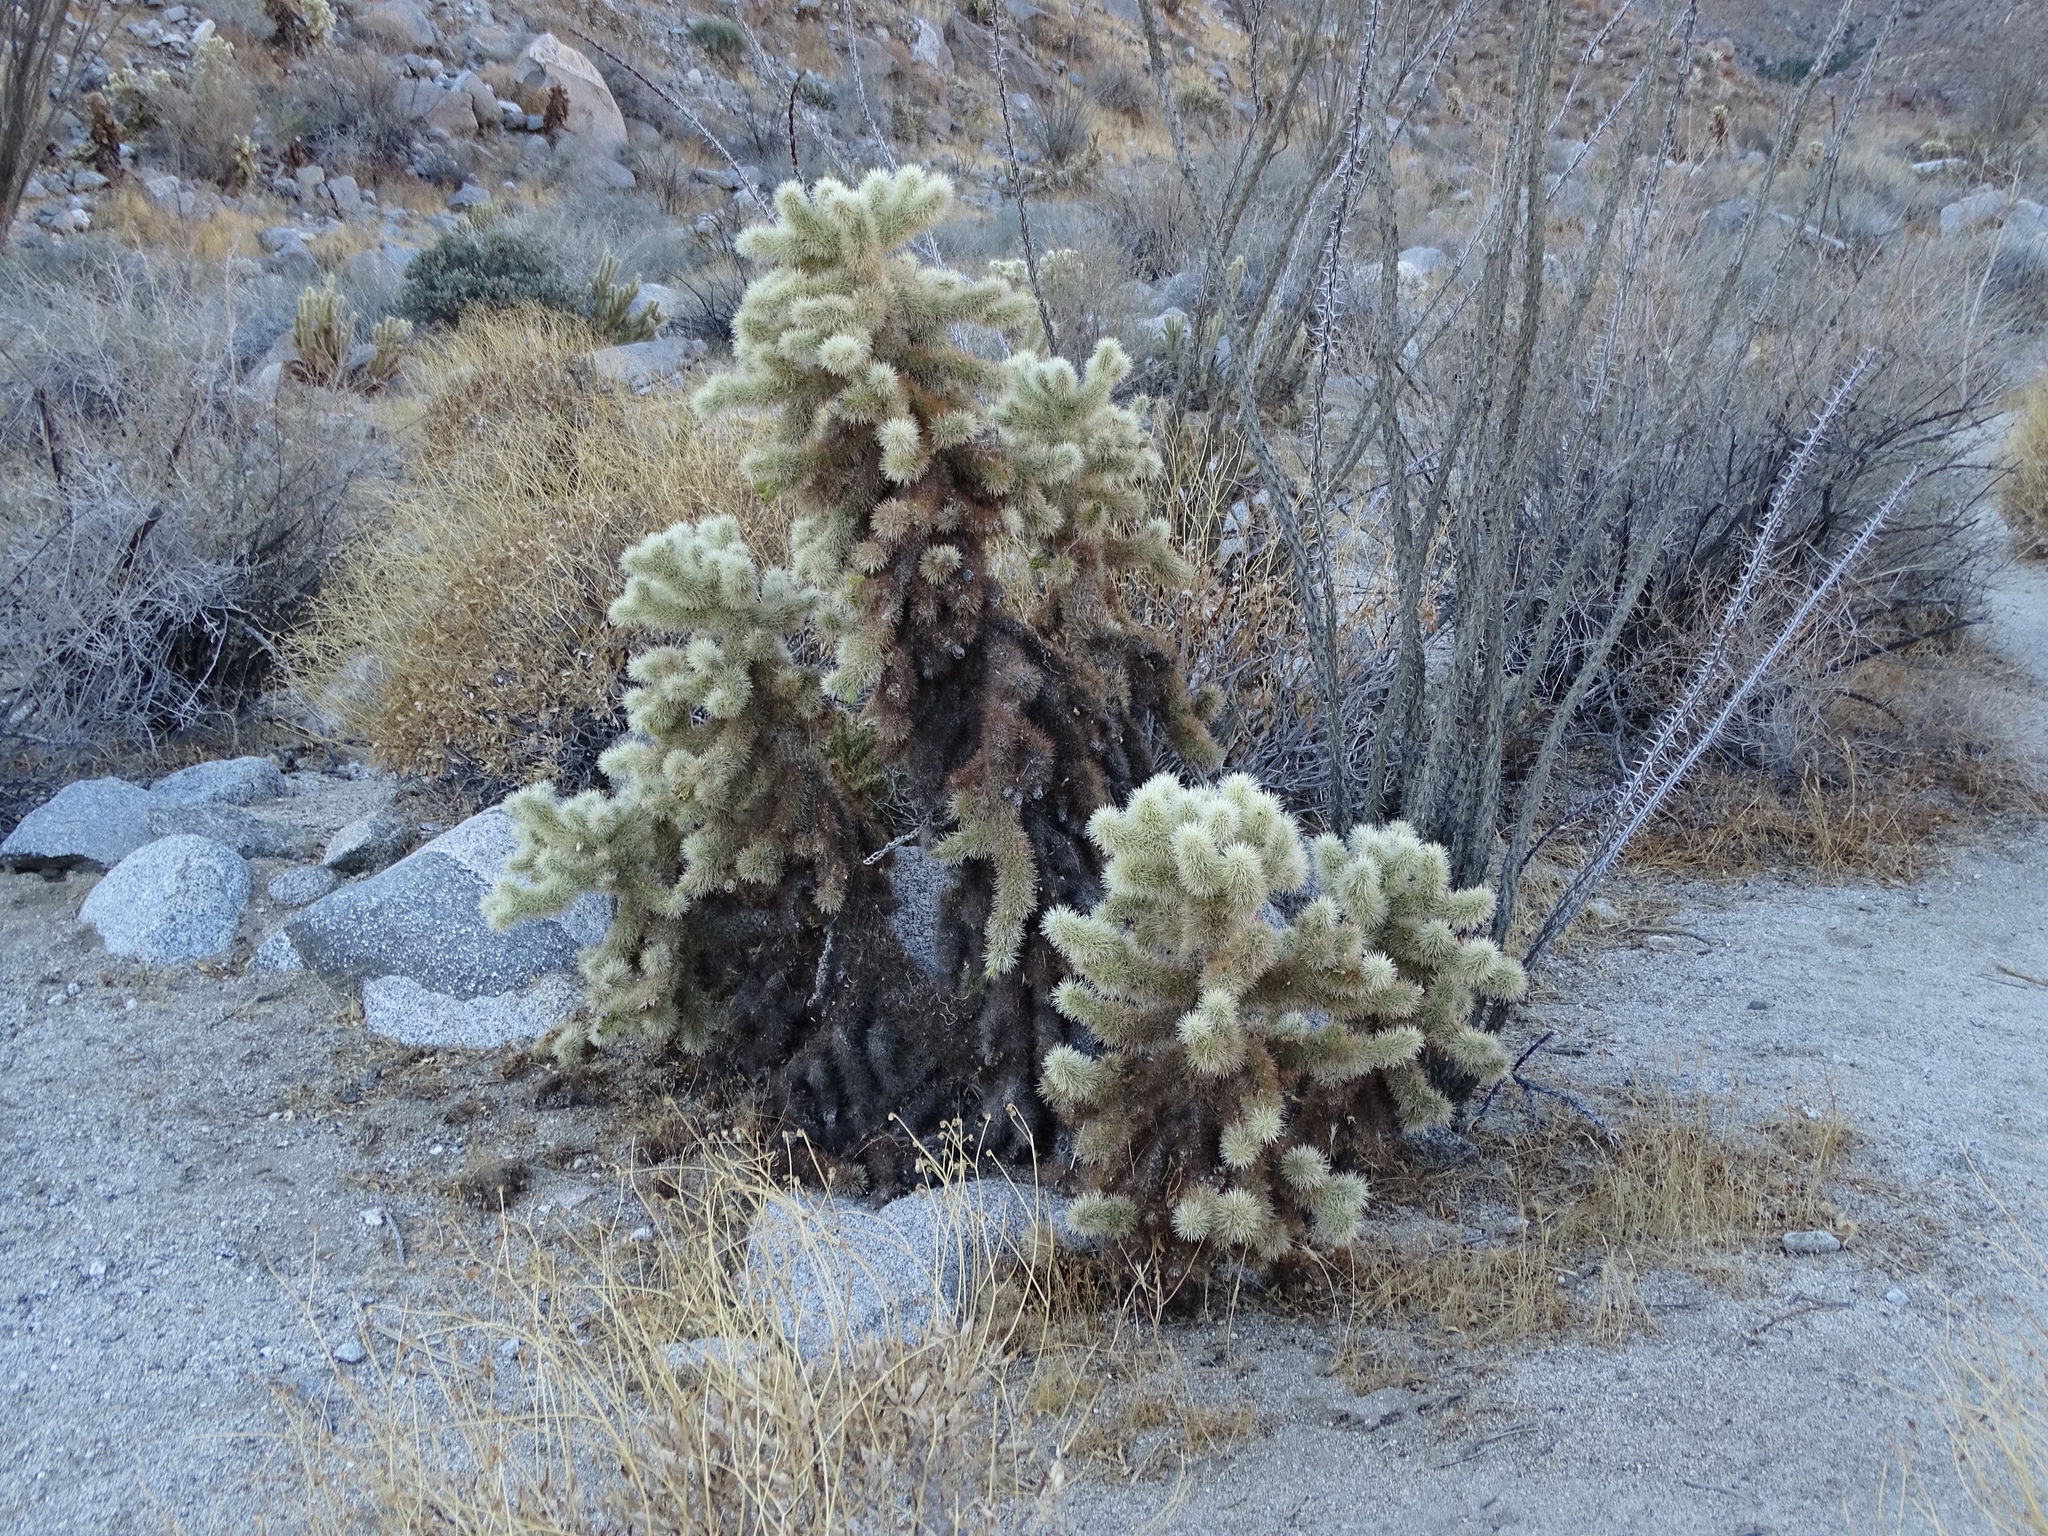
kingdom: Plantae
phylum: Tracheophyta
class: Magnoliopsida
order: Caryophyllales
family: Cactaceae
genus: Cylindropuntia
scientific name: Cylindropuntia fosbergii
